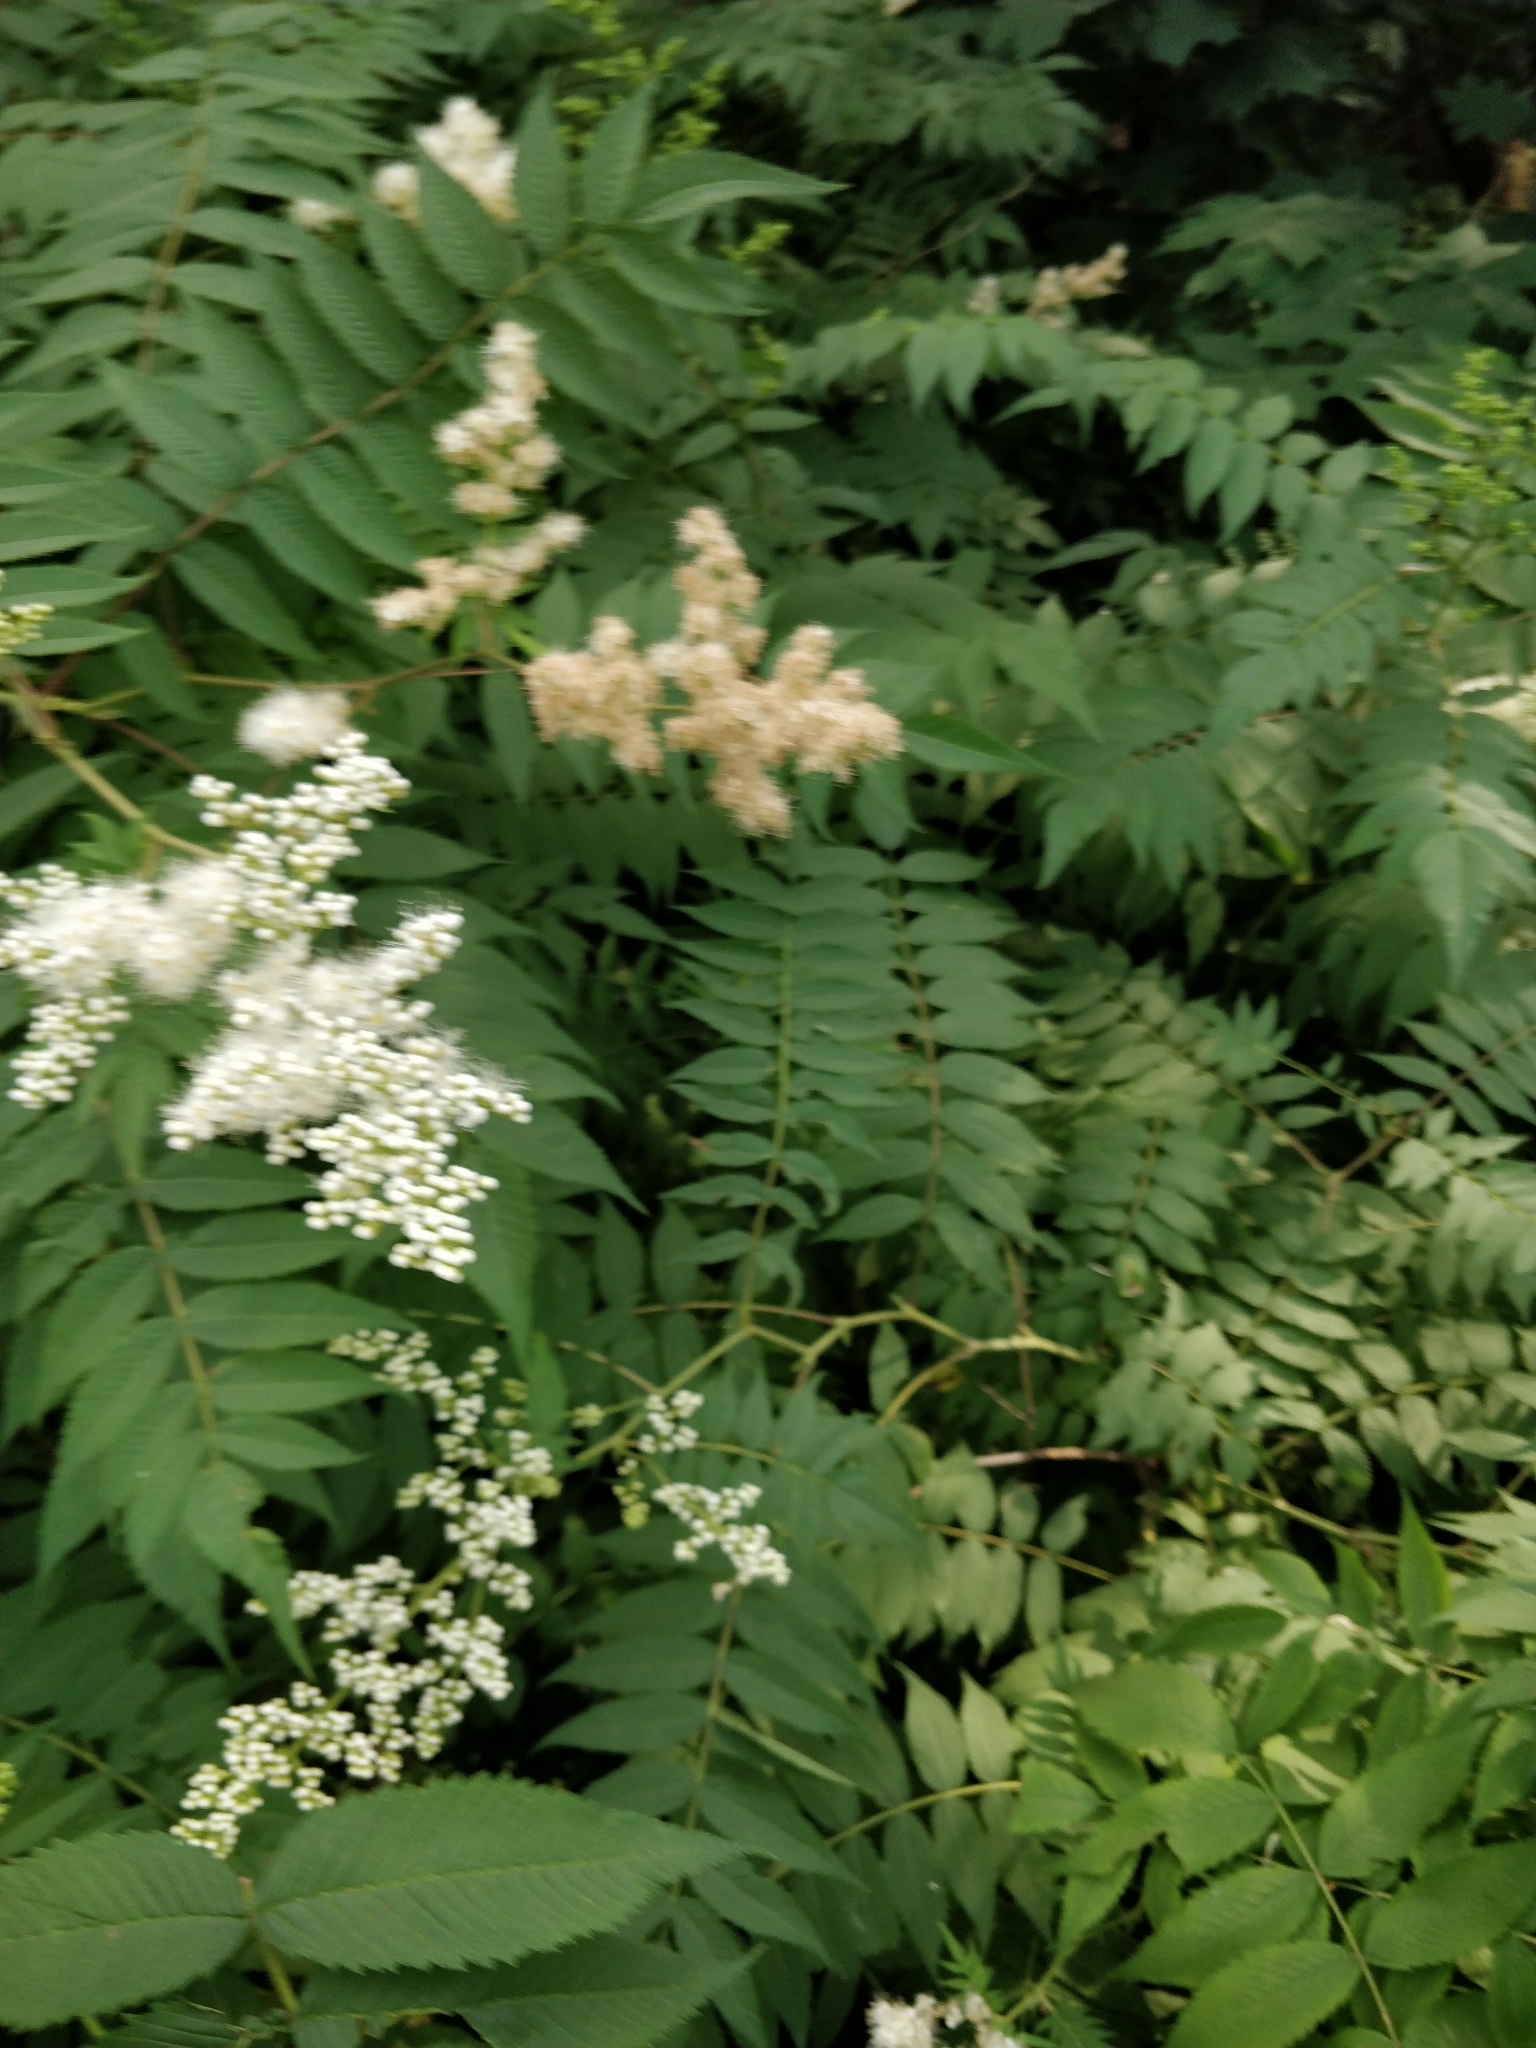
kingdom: Plantae
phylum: Tracheophyta
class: Magnoliopsida
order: Rosales
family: Rosaceae
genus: Sorbaria
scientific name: Sorbaria sorbifolia
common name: False spiraea
